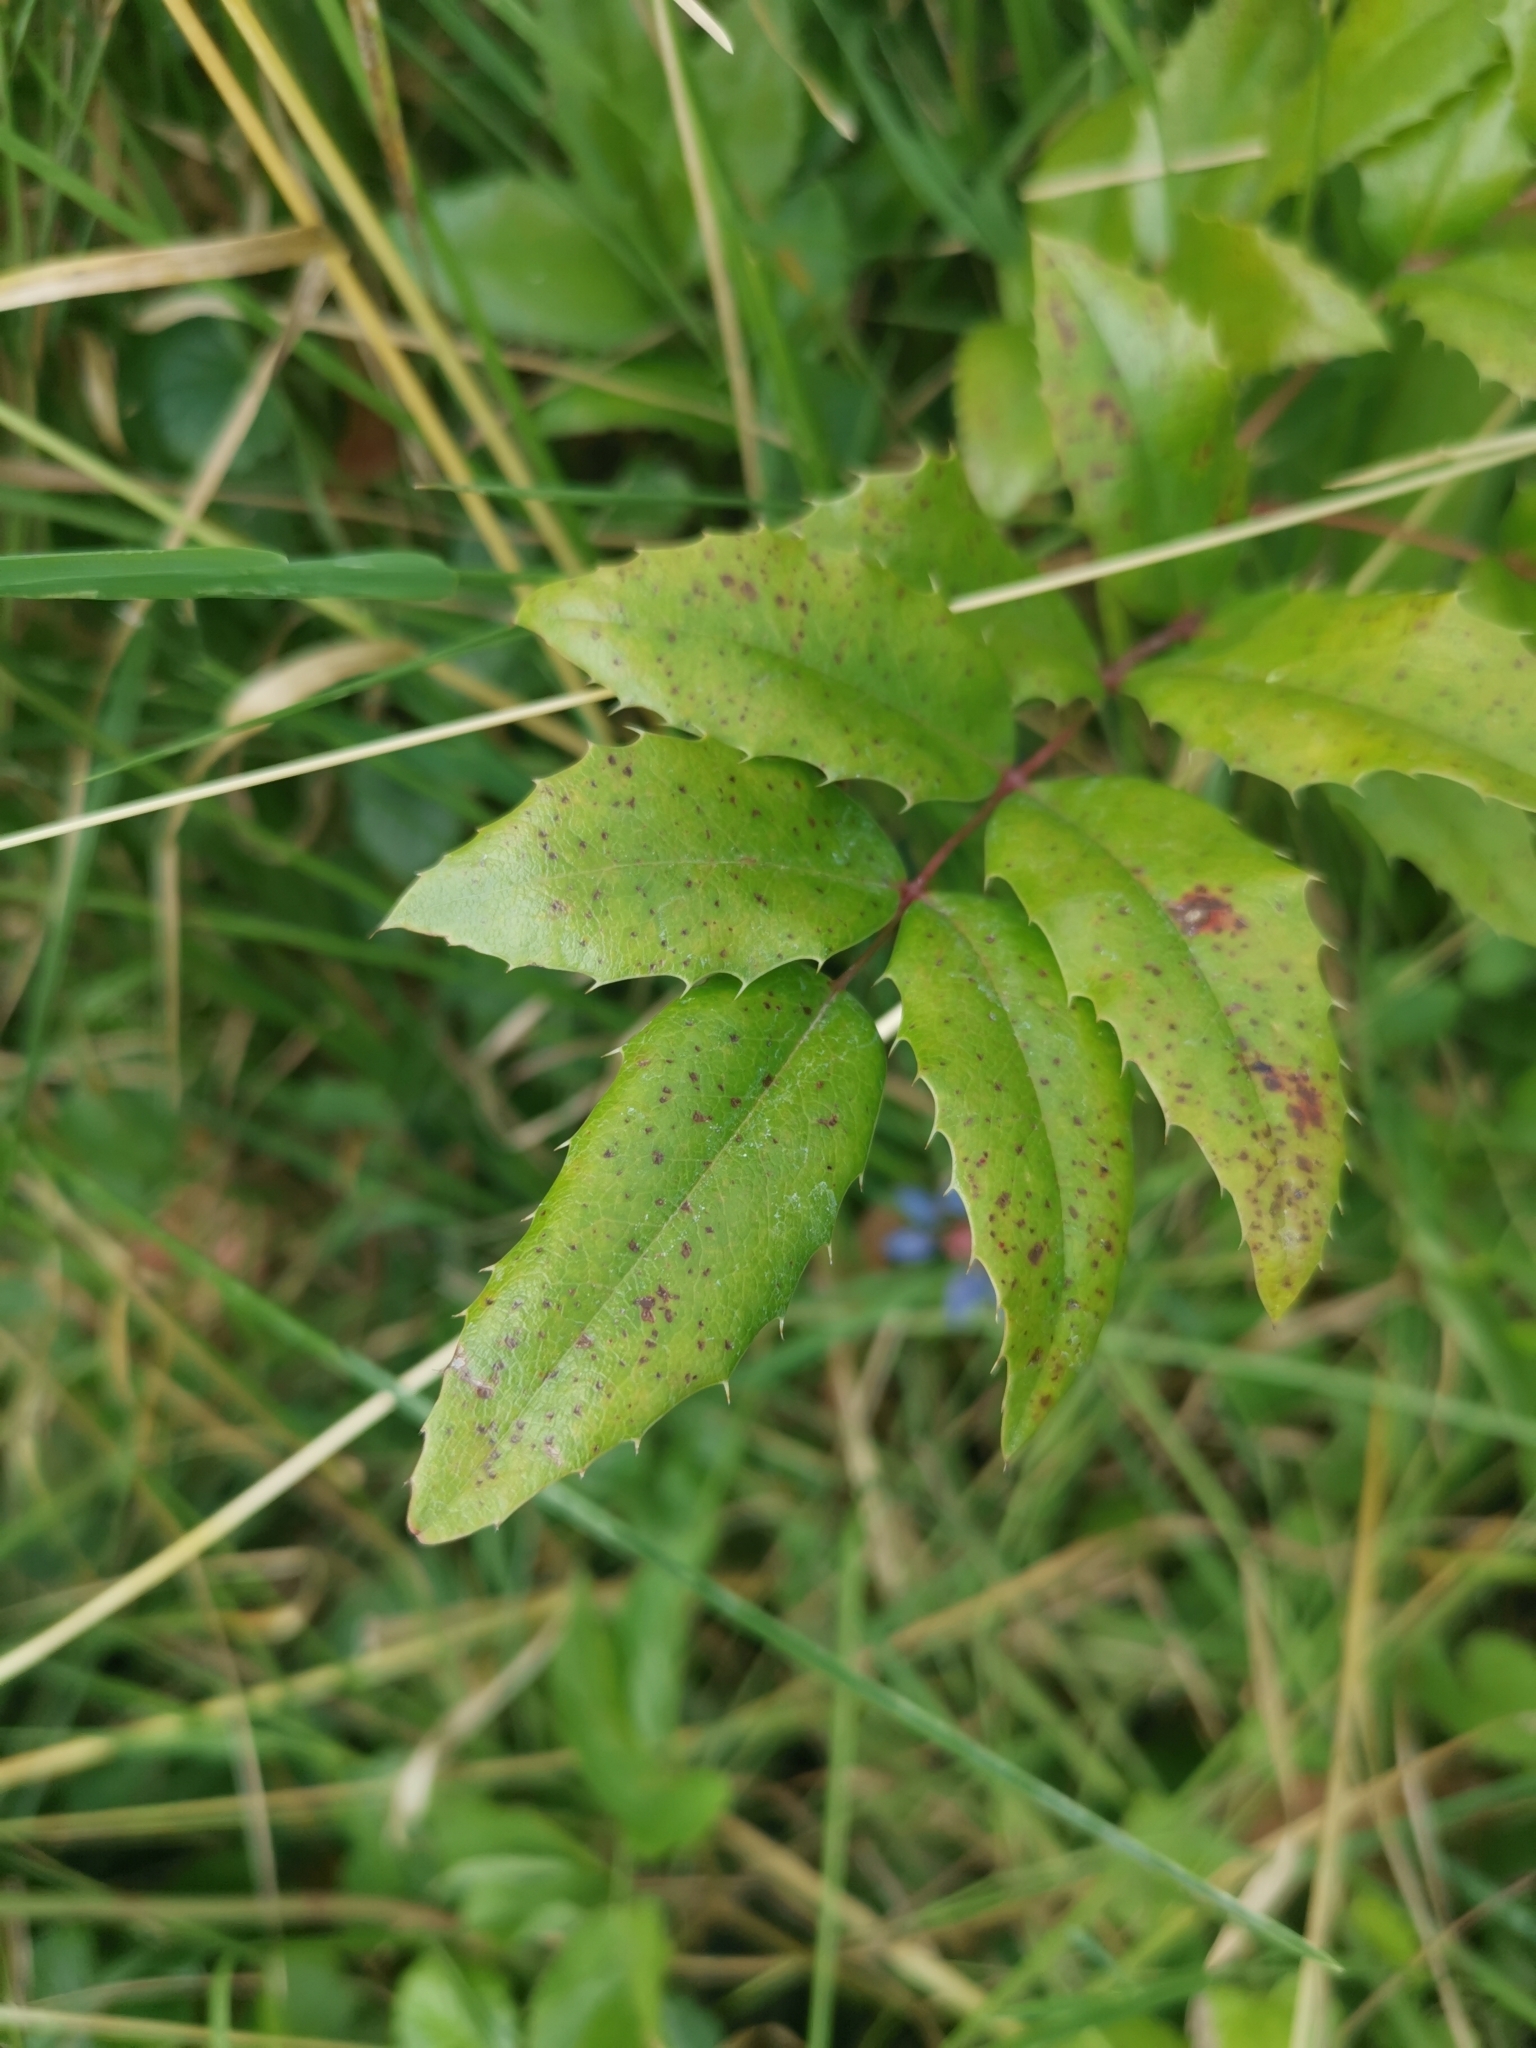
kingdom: Plantae
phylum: Tracheophyta
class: Magnoliopsida
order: Ranunculales
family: Berberidaceae
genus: Mahonia
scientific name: Mahonia aquifolium
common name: Oregon-grape
